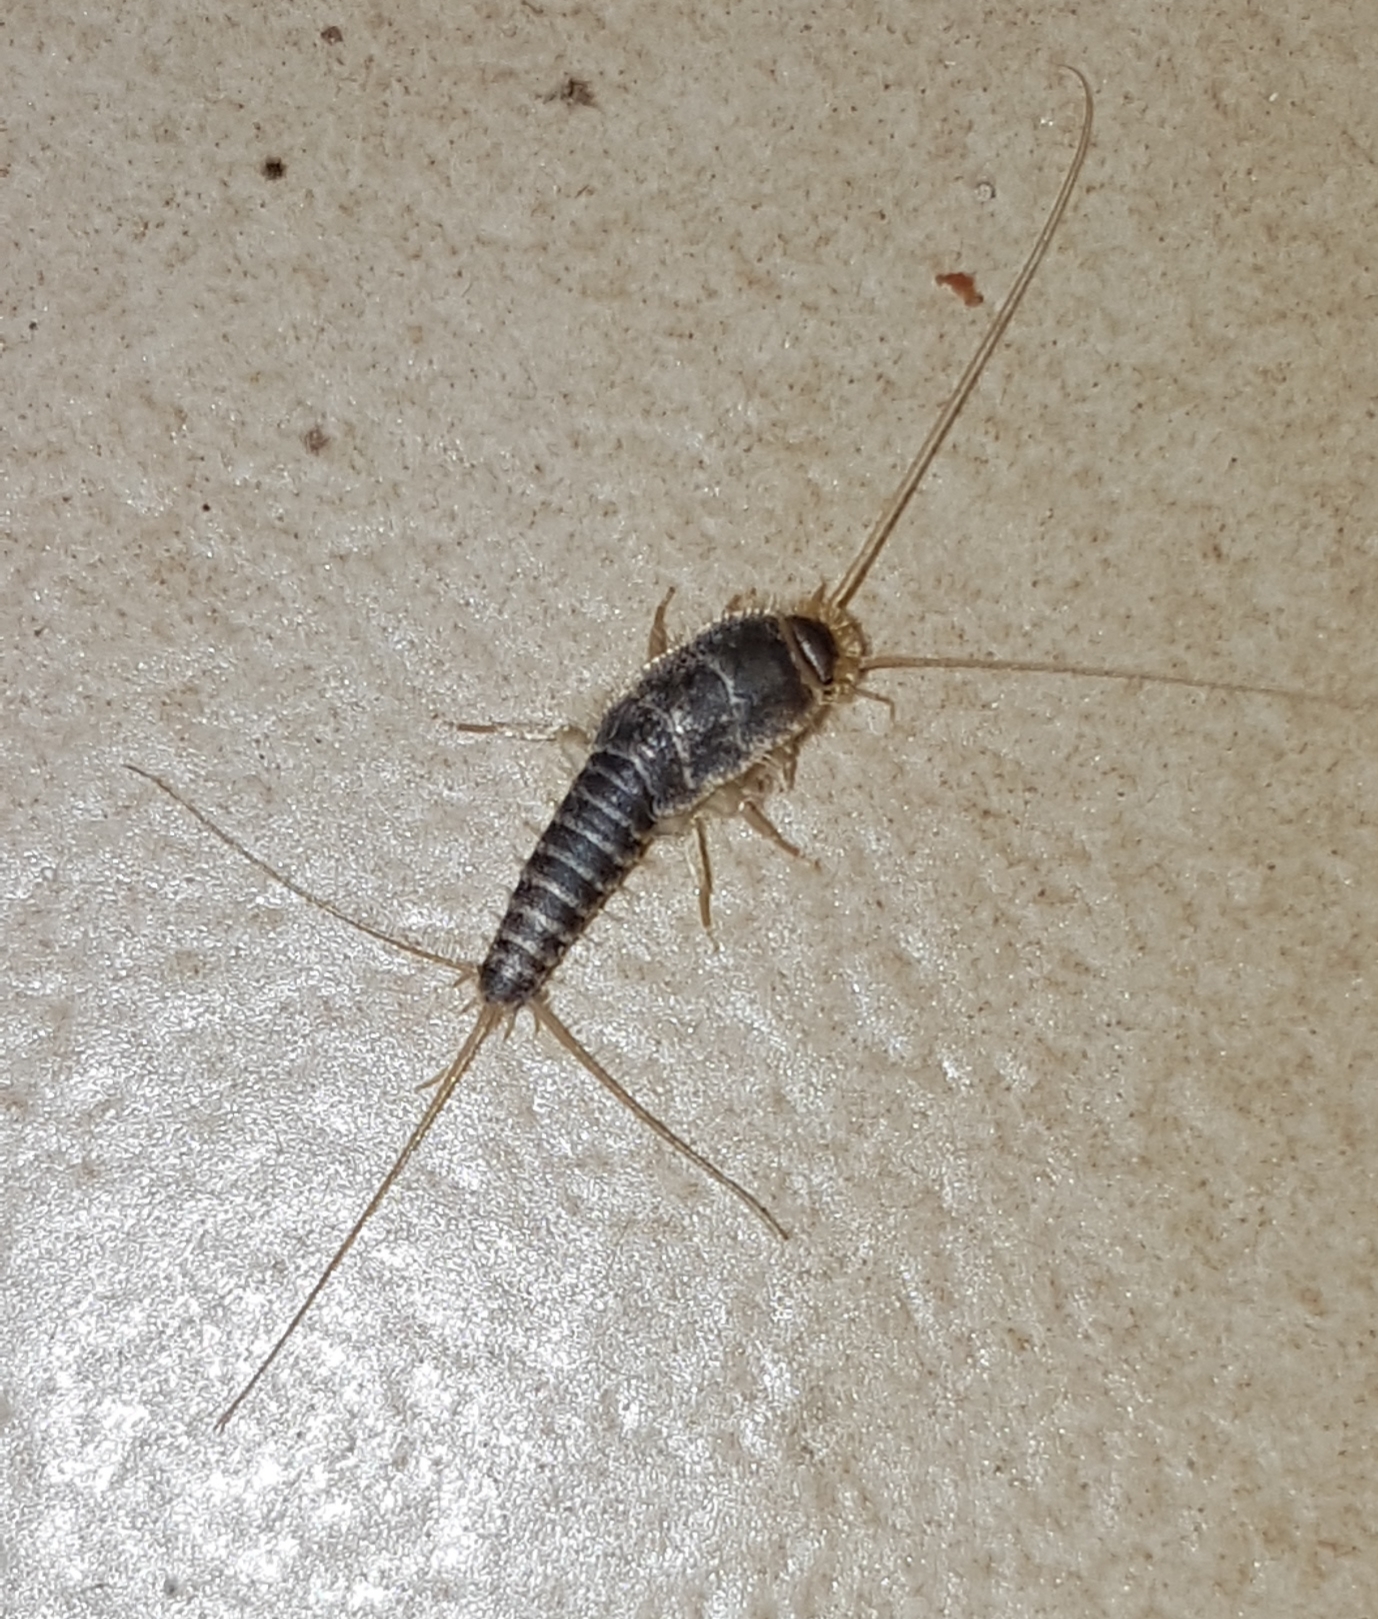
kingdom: Animalia
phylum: Arthropoda
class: Insecta
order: Zygentoma
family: Lepismatidae
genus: Ctenolepisma
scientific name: Ctenolepisma longicaudatum
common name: Silverfish
